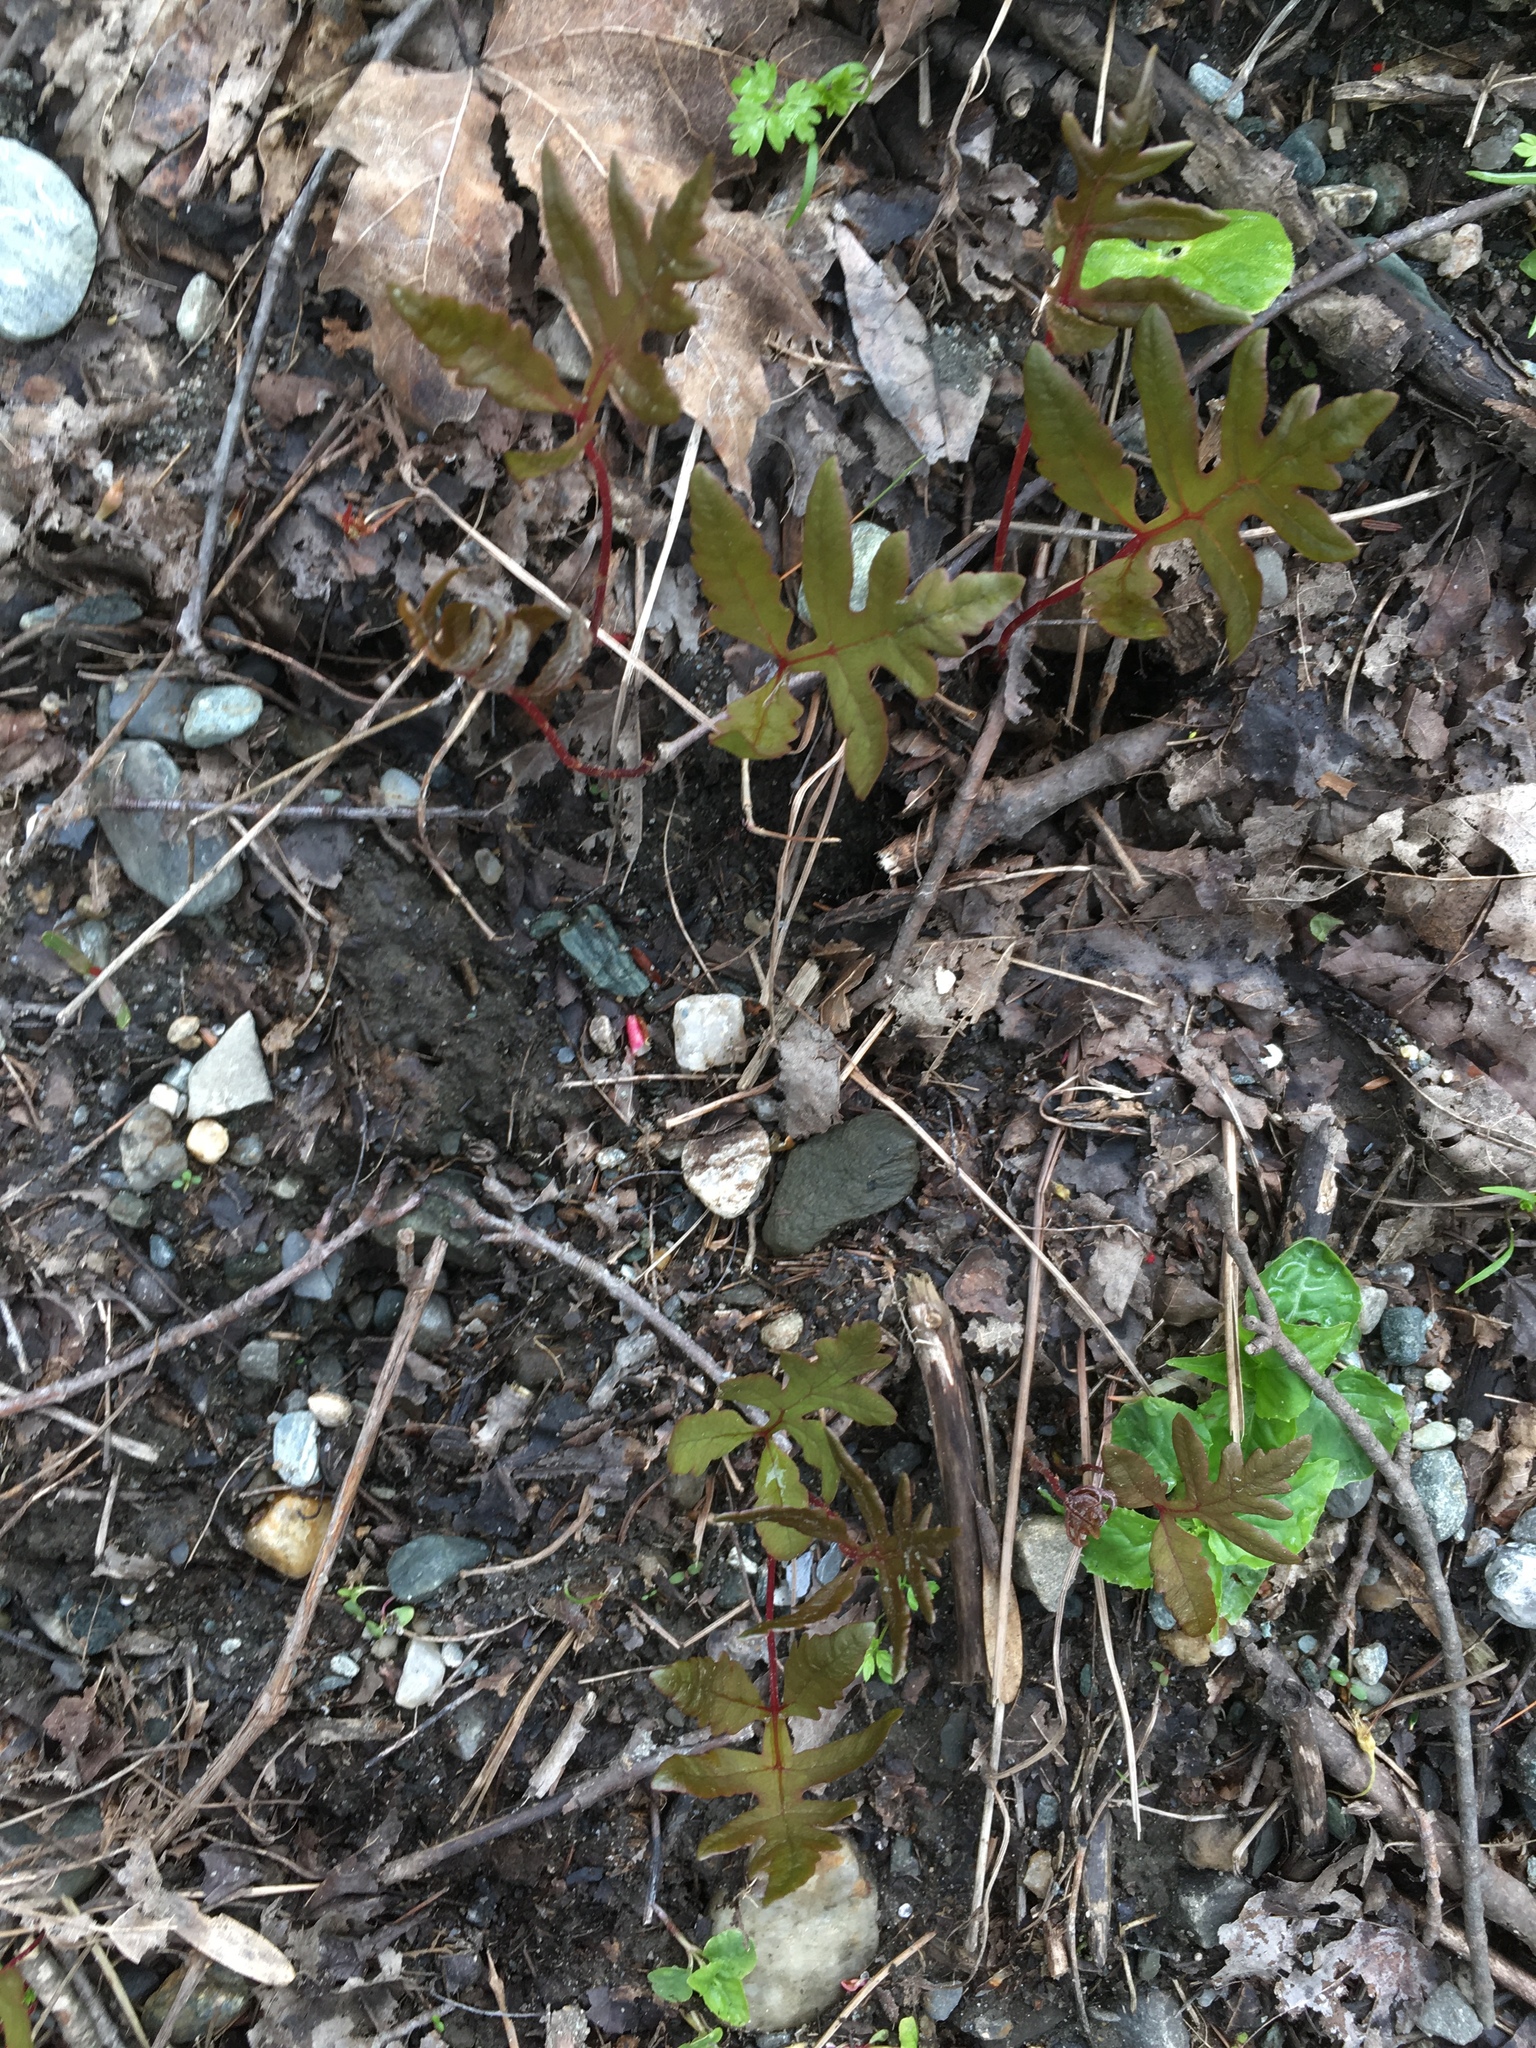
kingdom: Plantae
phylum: Tracheophyta
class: Polypodiopsida
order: Polypodiales
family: Onocleaceae
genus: Onoclea
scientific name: Onoclea sensibilis
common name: Sensitive fern
